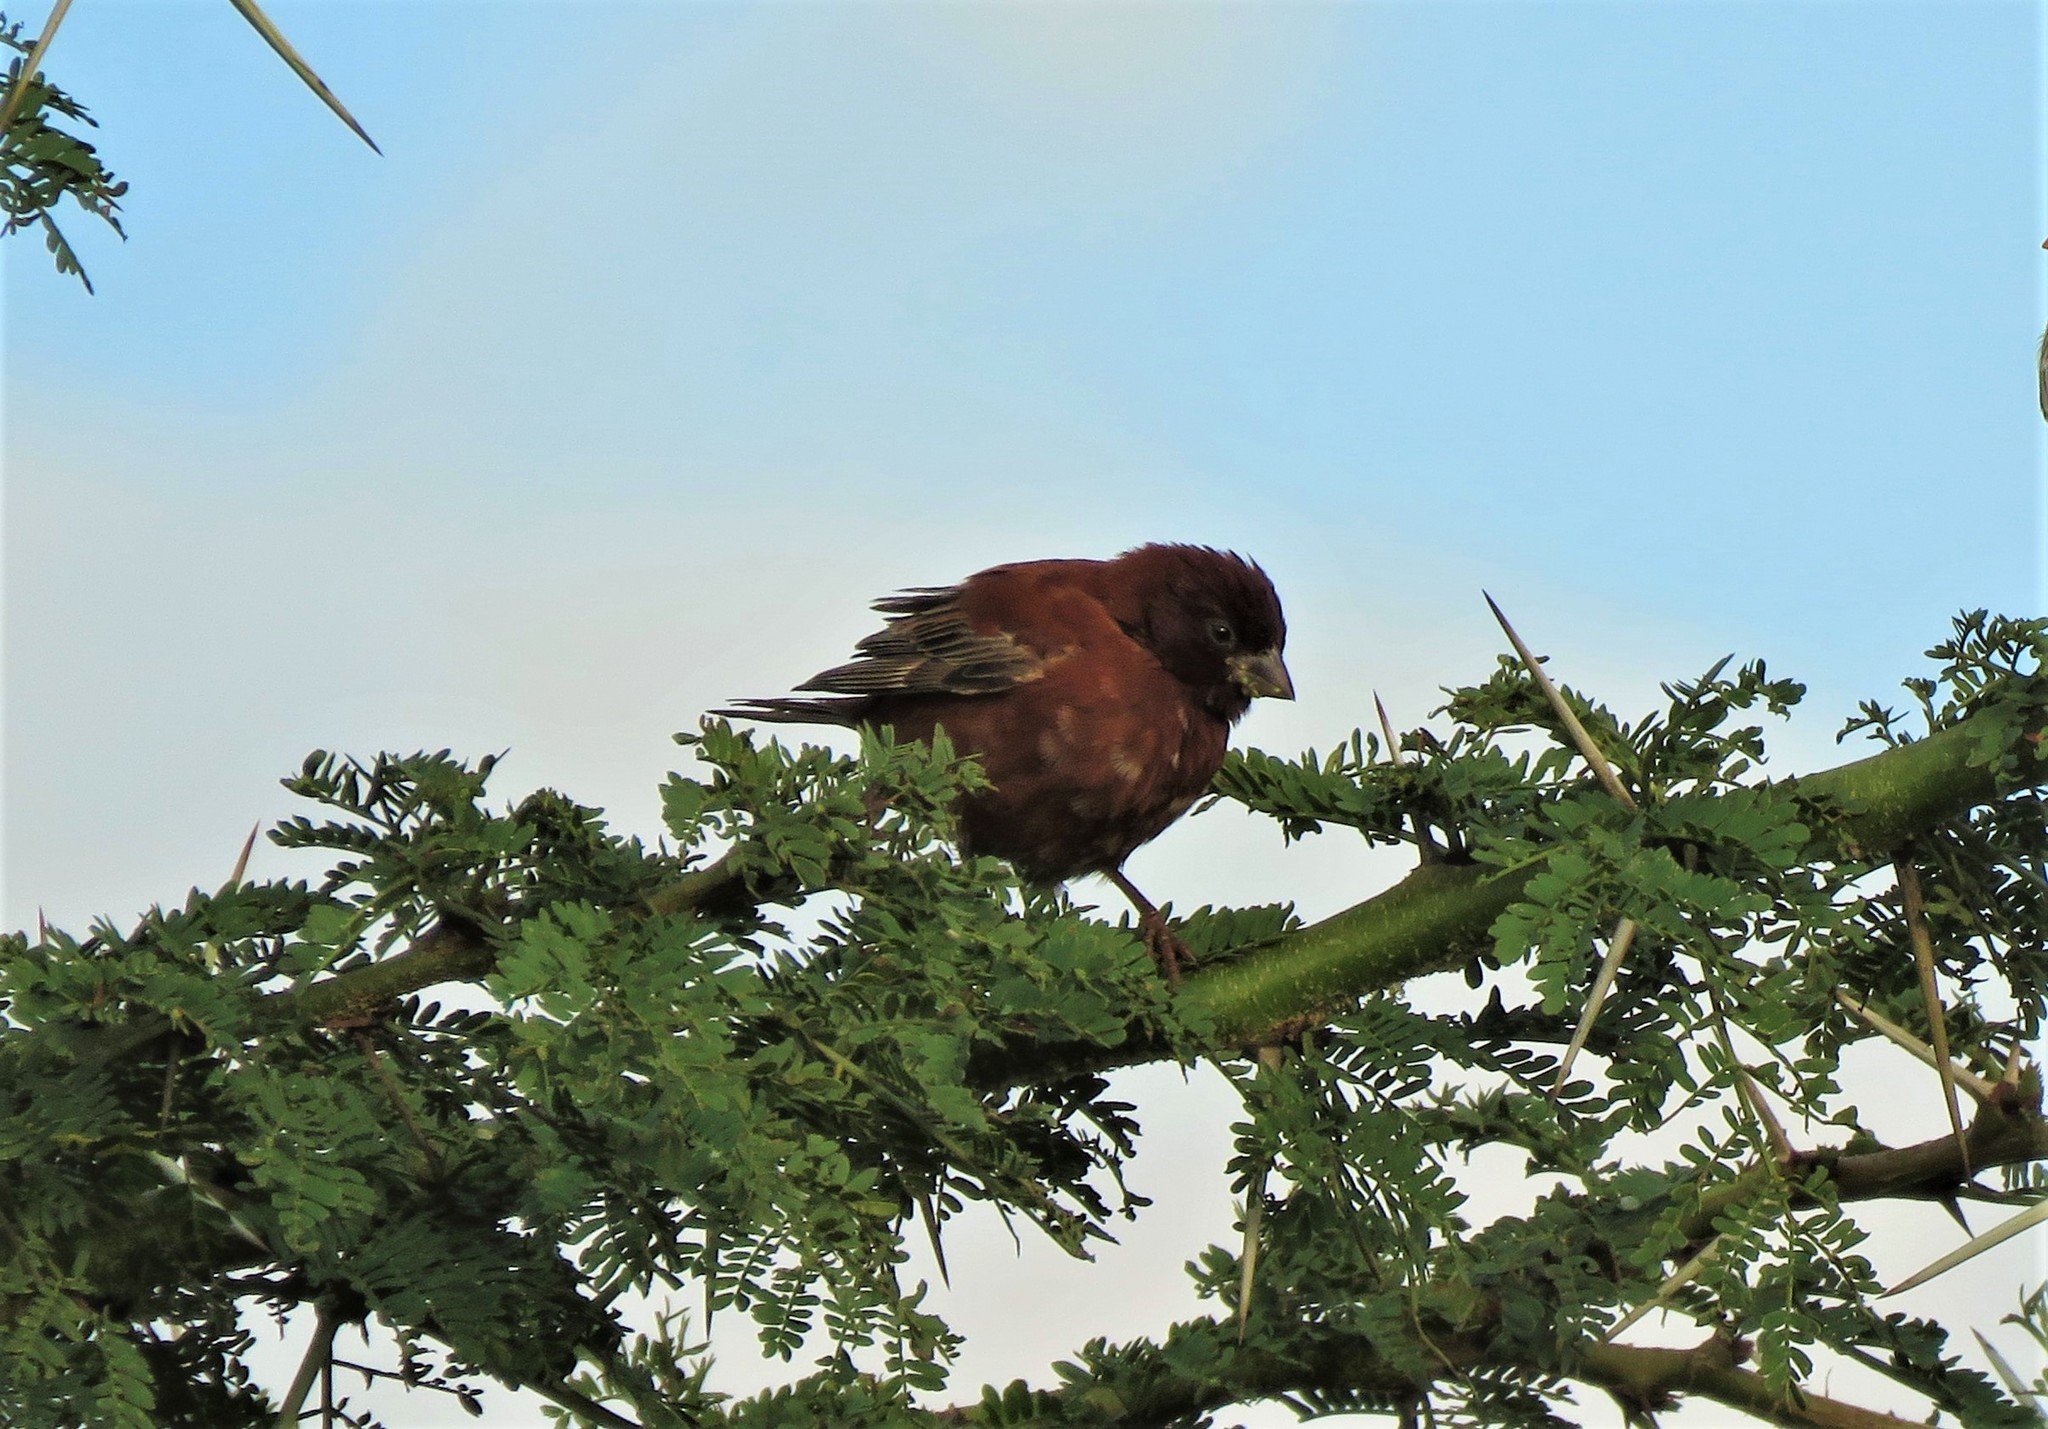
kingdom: Animalia
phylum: Chordata
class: Aves
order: Passeriformes
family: Passeridae
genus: Passer
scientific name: Passer eminibey
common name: Chestnut sparrow
